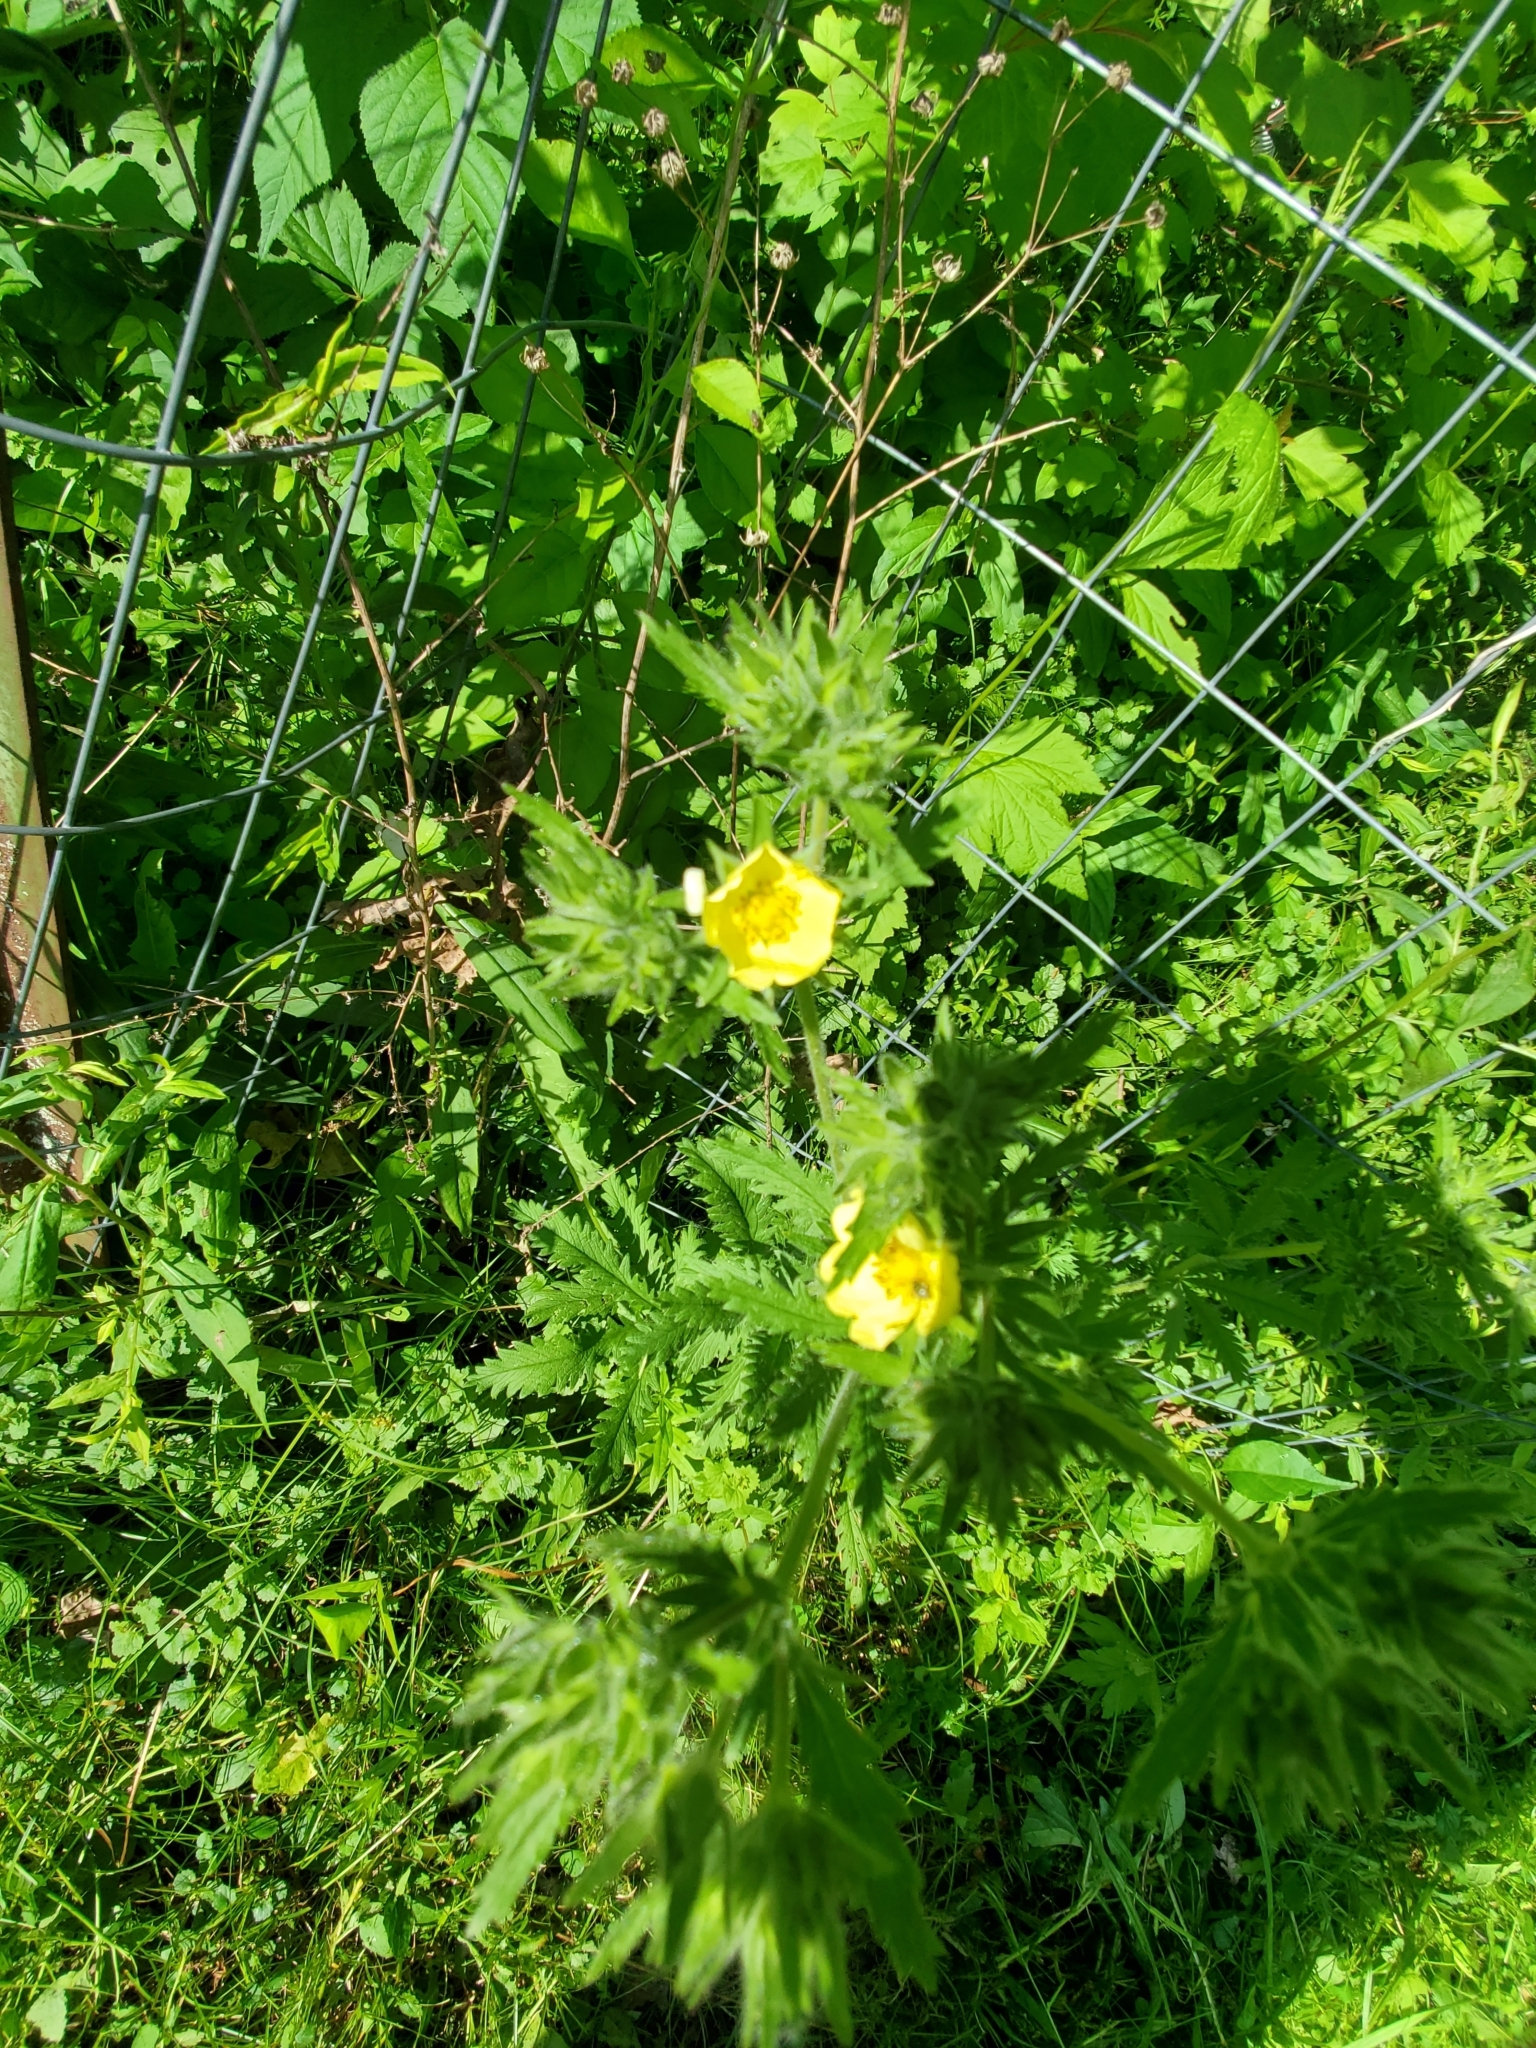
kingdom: Plantae
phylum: Tracheophyta
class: Magnoliopsida
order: Rosales
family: Rosaceae
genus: Potentilla
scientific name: Potentilla recta
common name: Sulphur cinquefoil
